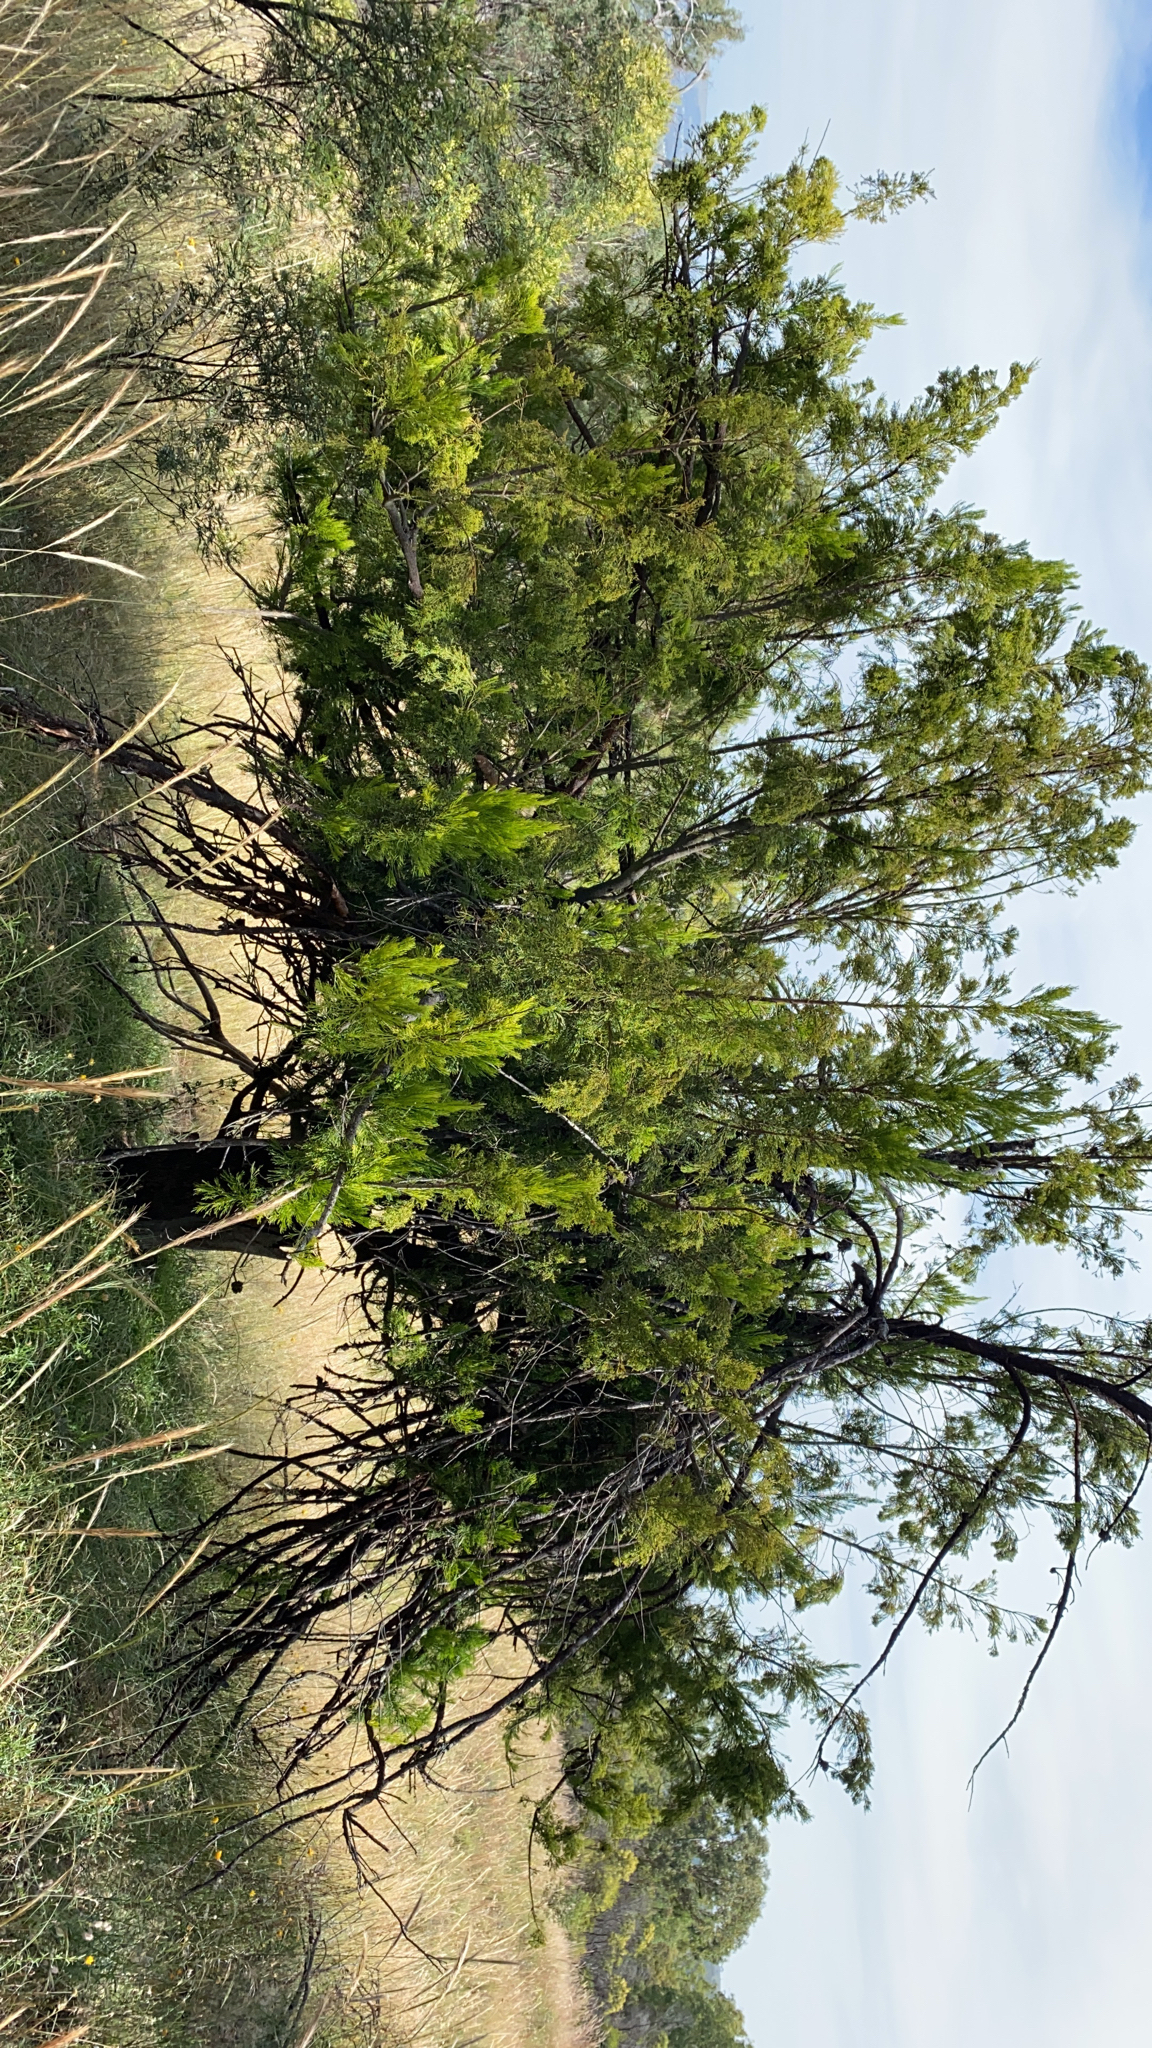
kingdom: Plantae
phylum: Tracheophyta
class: Magnoliopsida
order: Santalales
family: Santalaceae
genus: Exocarpos
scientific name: Exocarpos cupressiformis
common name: Cherry ballart
